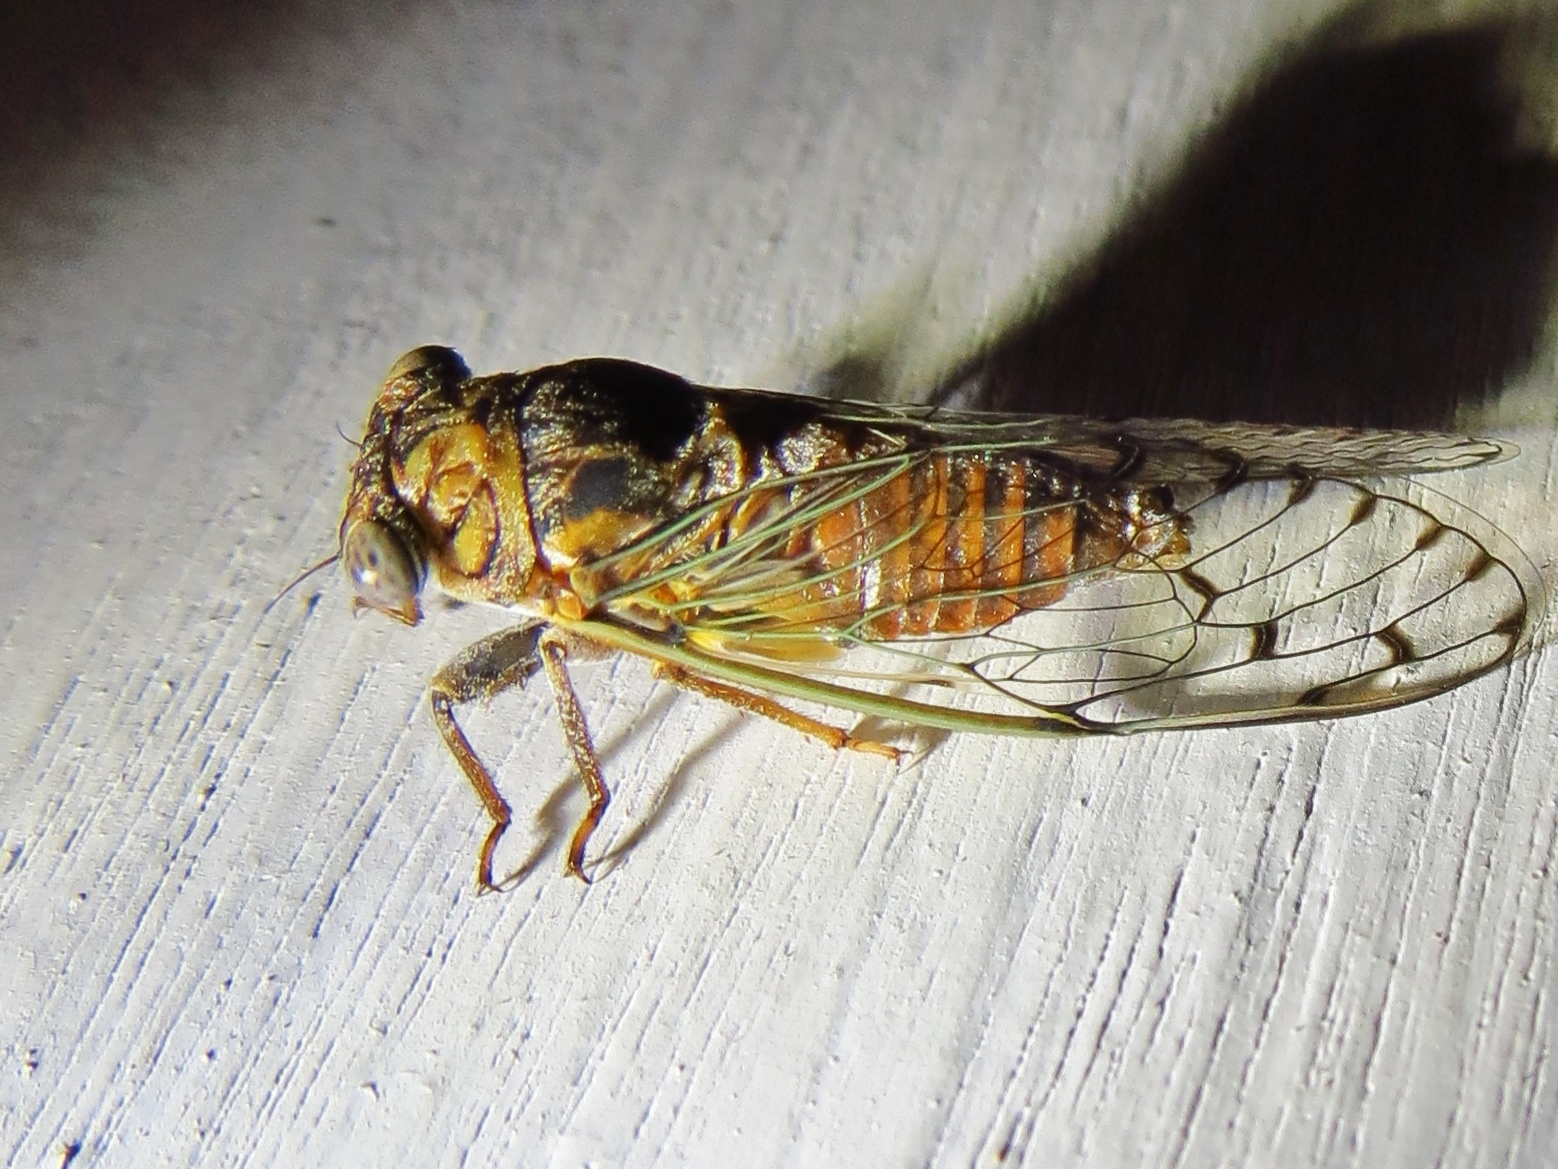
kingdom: Animalia
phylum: Arthropoda
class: Insecta
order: Hemiptera
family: Cicadidae
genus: Pacarina
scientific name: Pacarina puella
